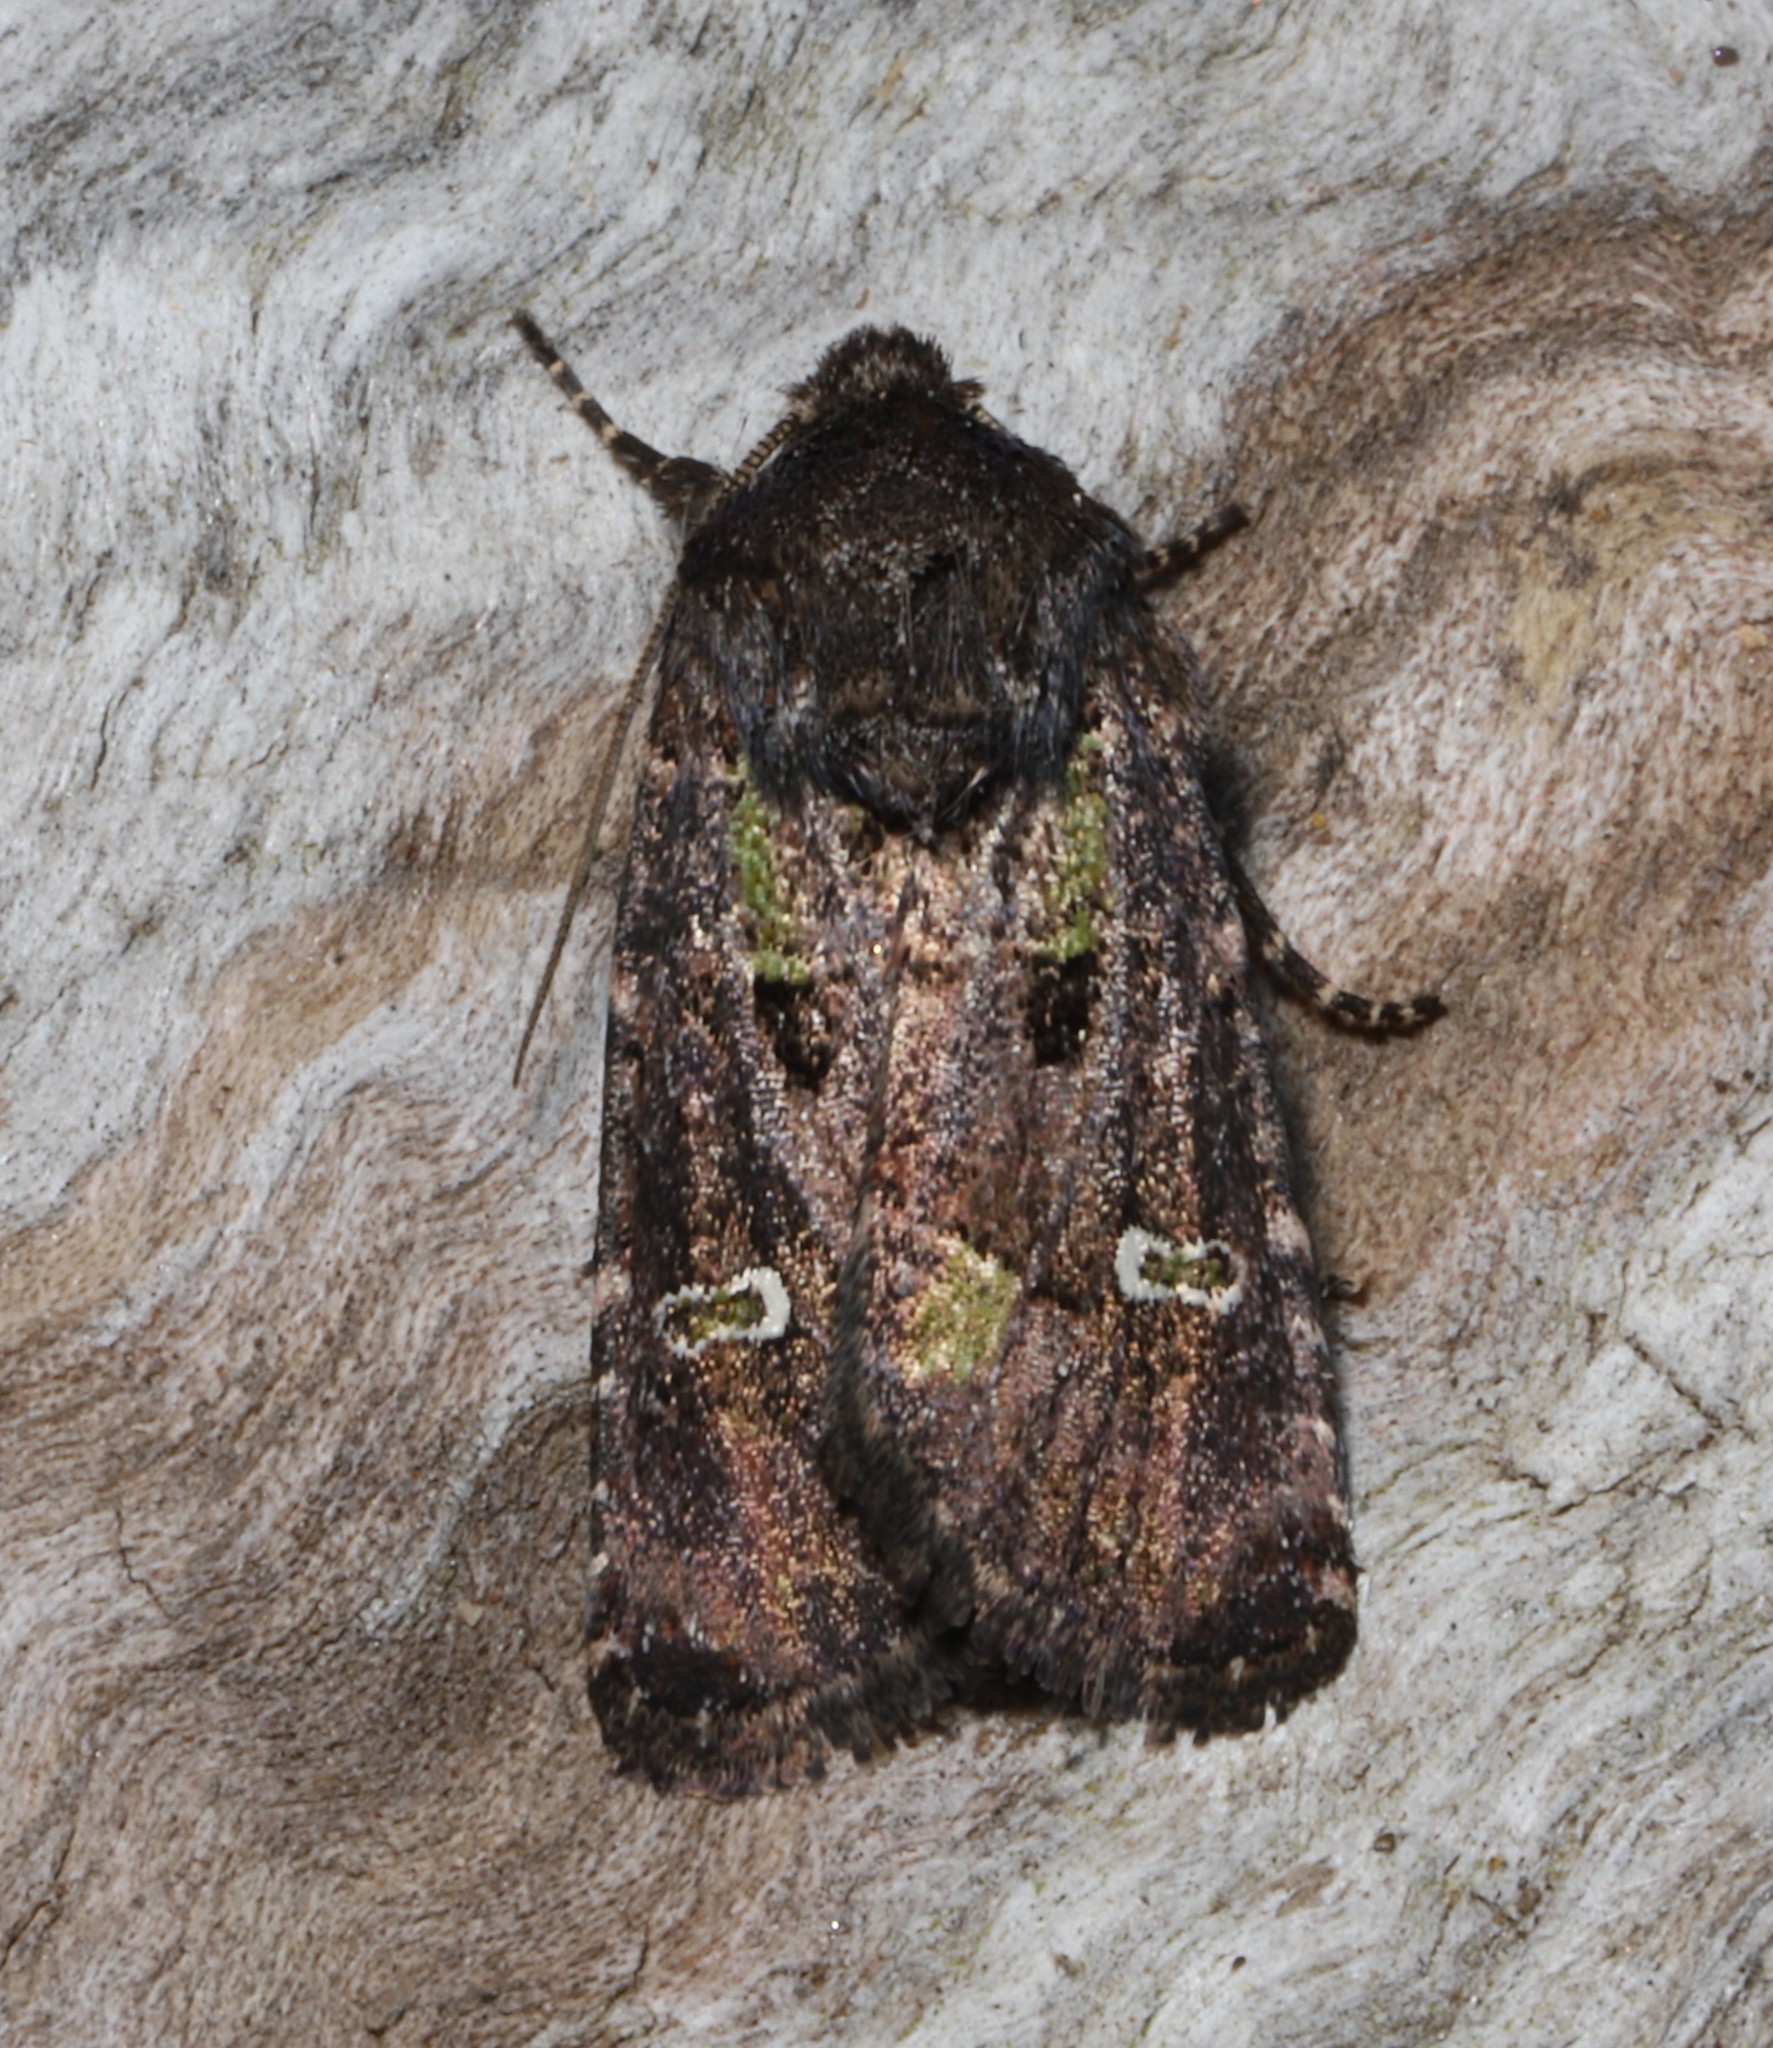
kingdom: Animalia
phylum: Arthropoda
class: Insecta
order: Lepidoptera
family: Noctuidae
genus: Lacinipolia
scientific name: Lacinipolia renigera
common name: Kidney-spotted minor
